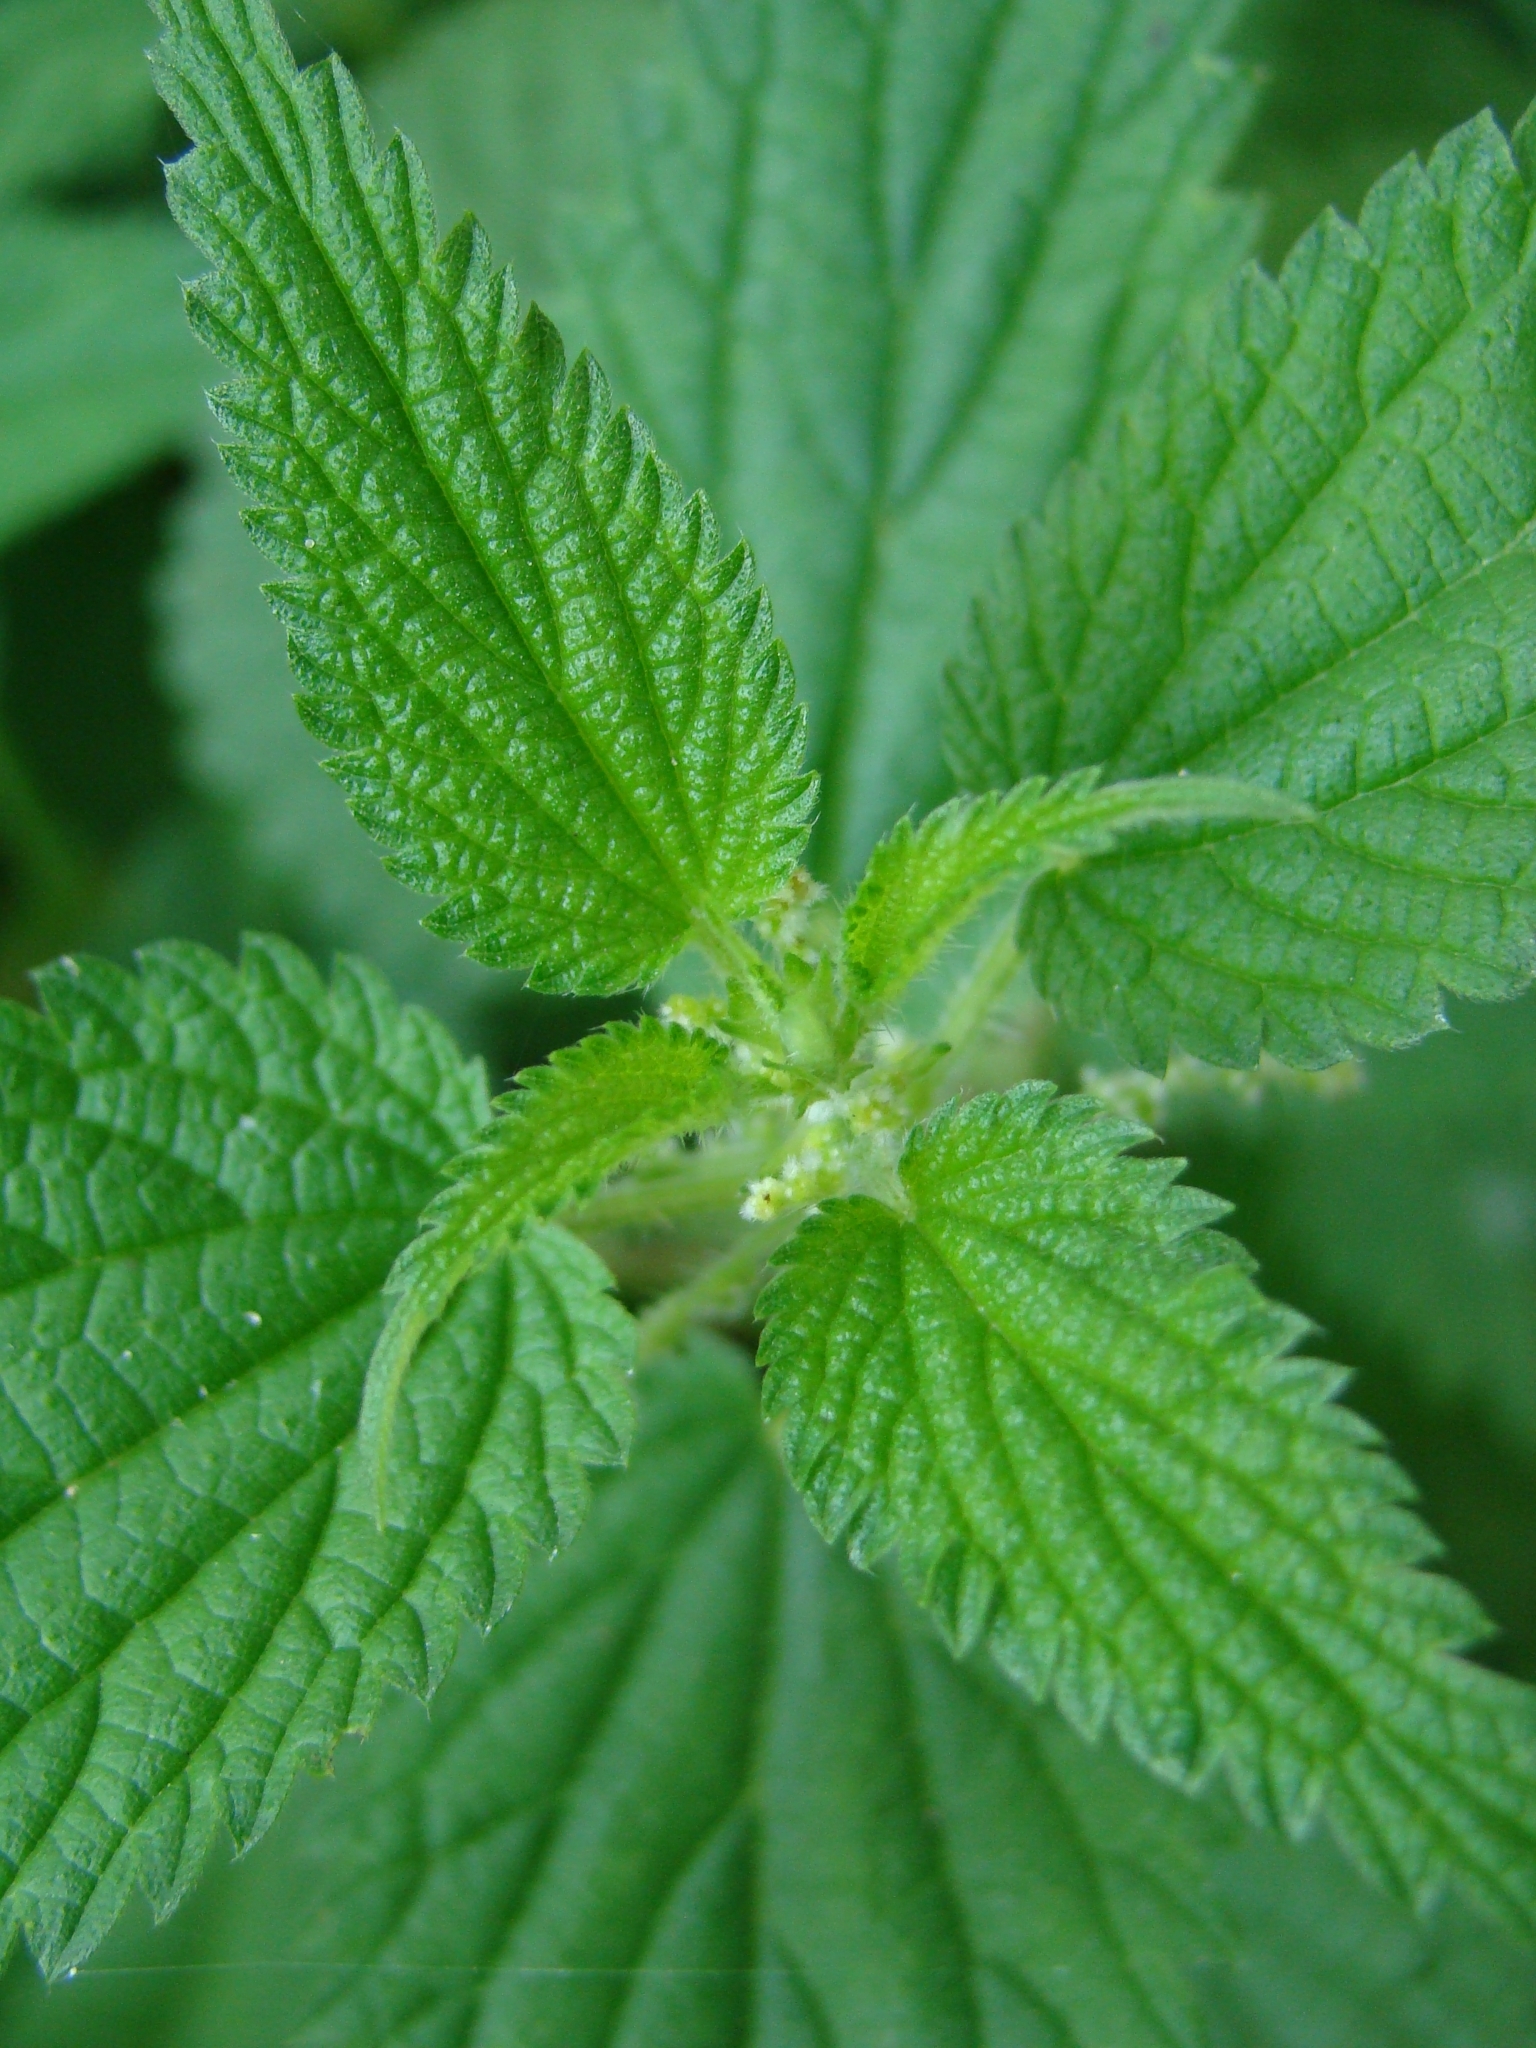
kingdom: Plantae
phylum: Tracheophyta
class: Magnoliopsida
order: Rosales
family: Urticaceae
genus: Urtica
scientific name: Urtica dioica
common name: Common nettle
